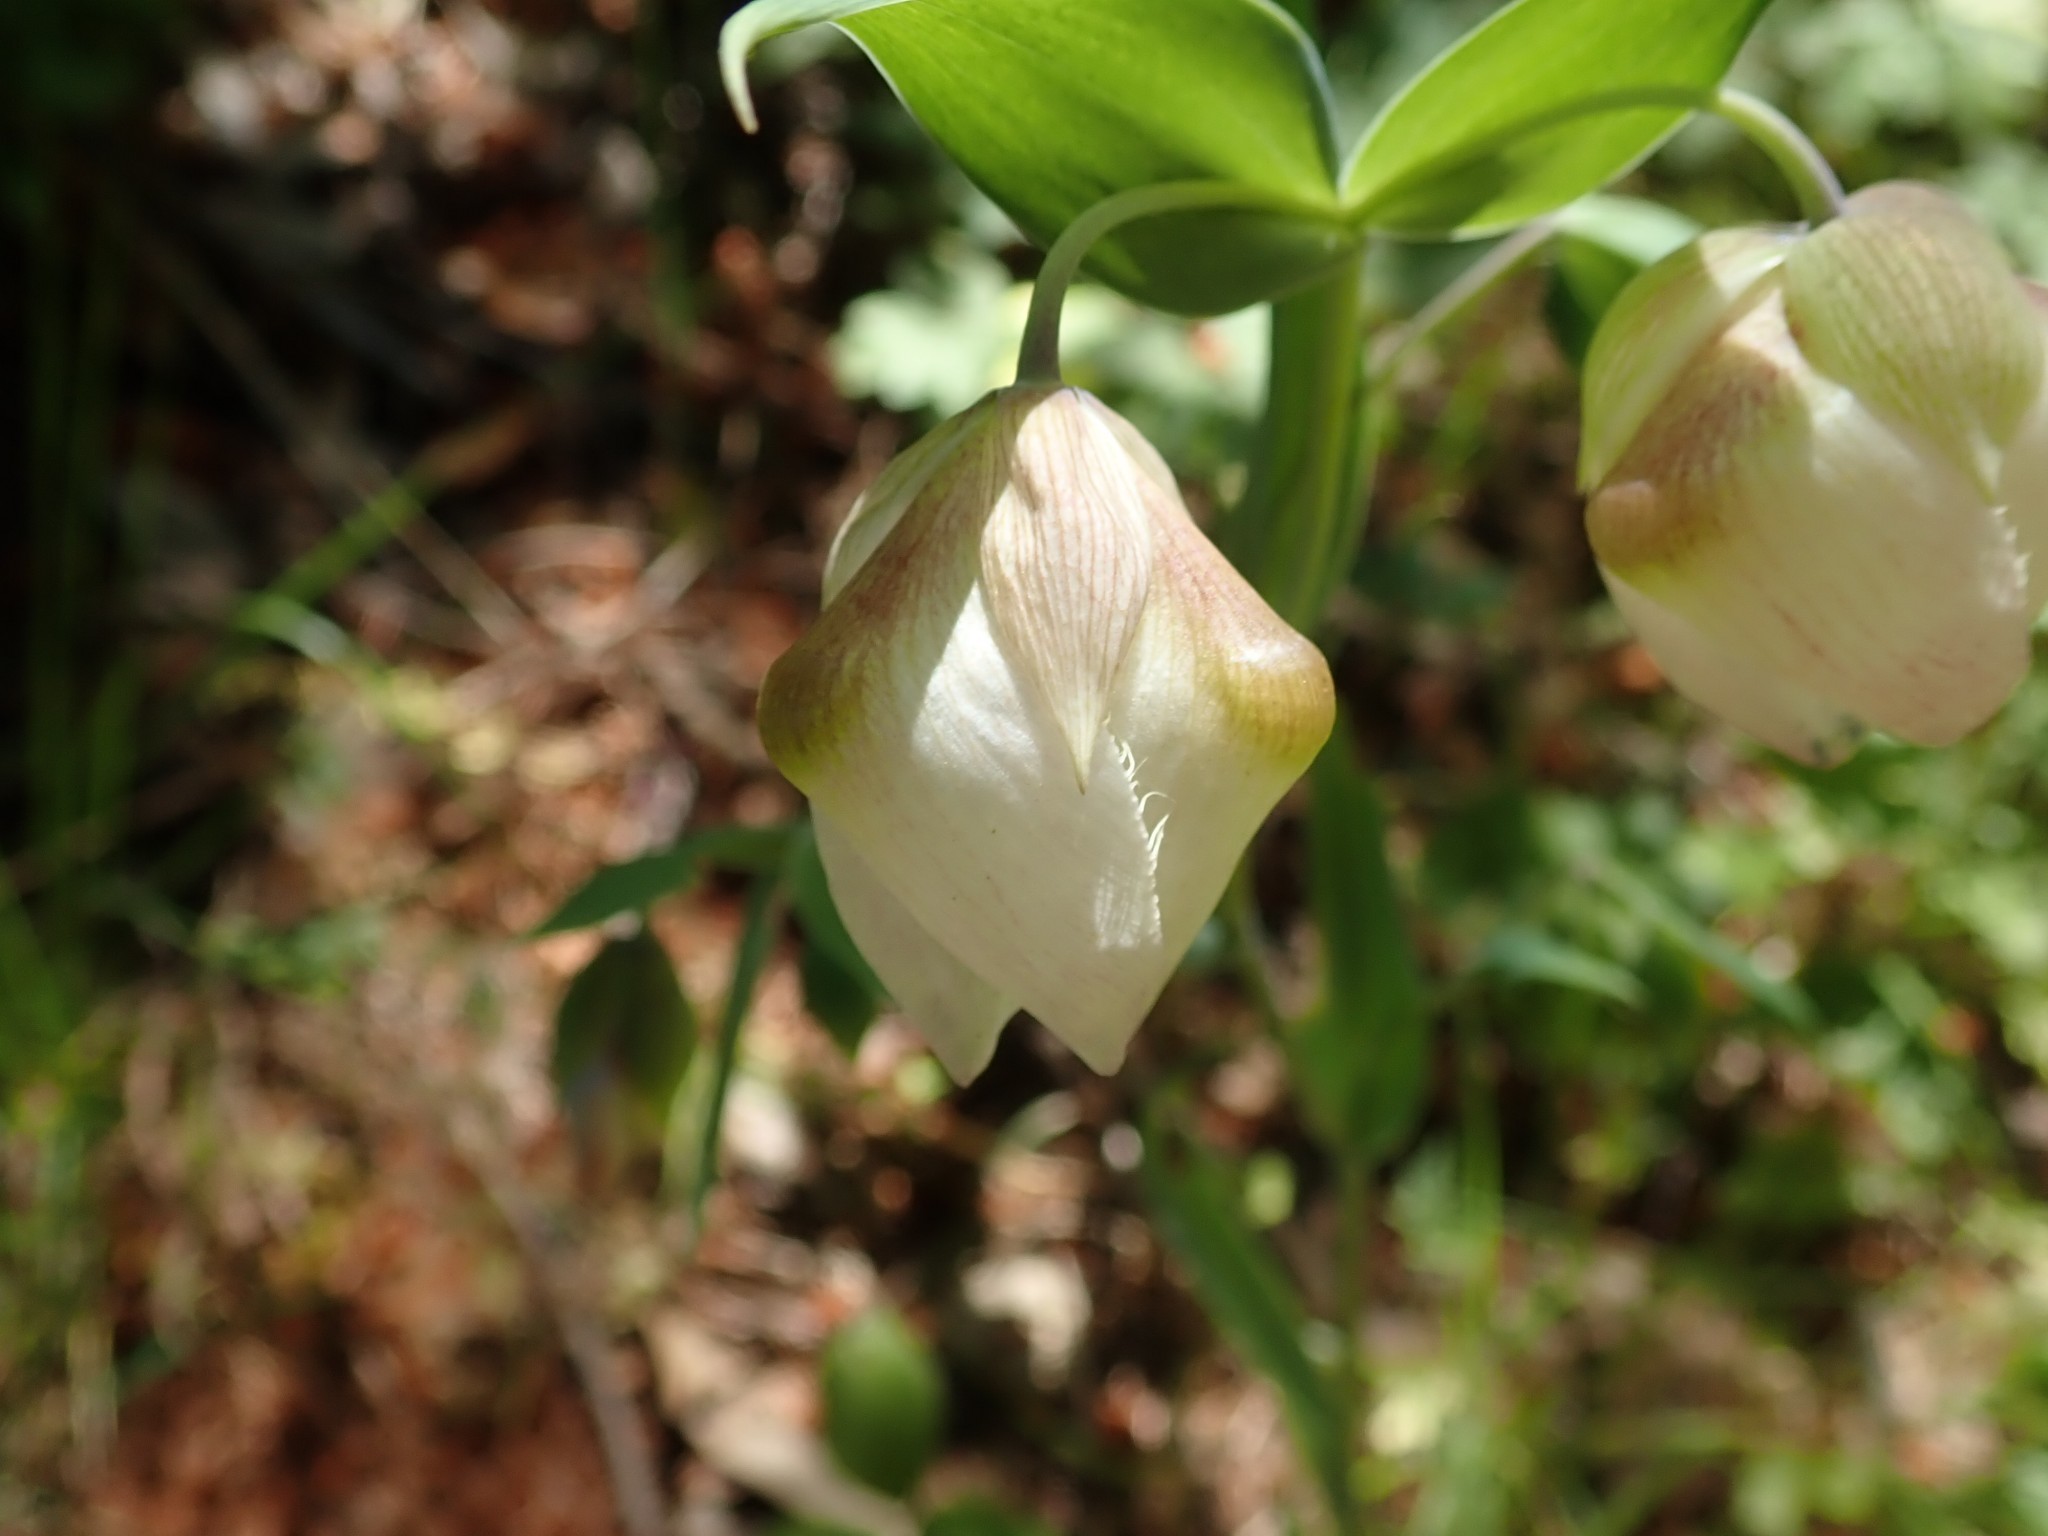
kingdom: Plantae
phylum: Tracheophyta
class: Liliopsida
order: Liliales
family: Liliaceae
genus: Calochortus
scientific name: Calochortus albus
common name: Fairy-lantern
